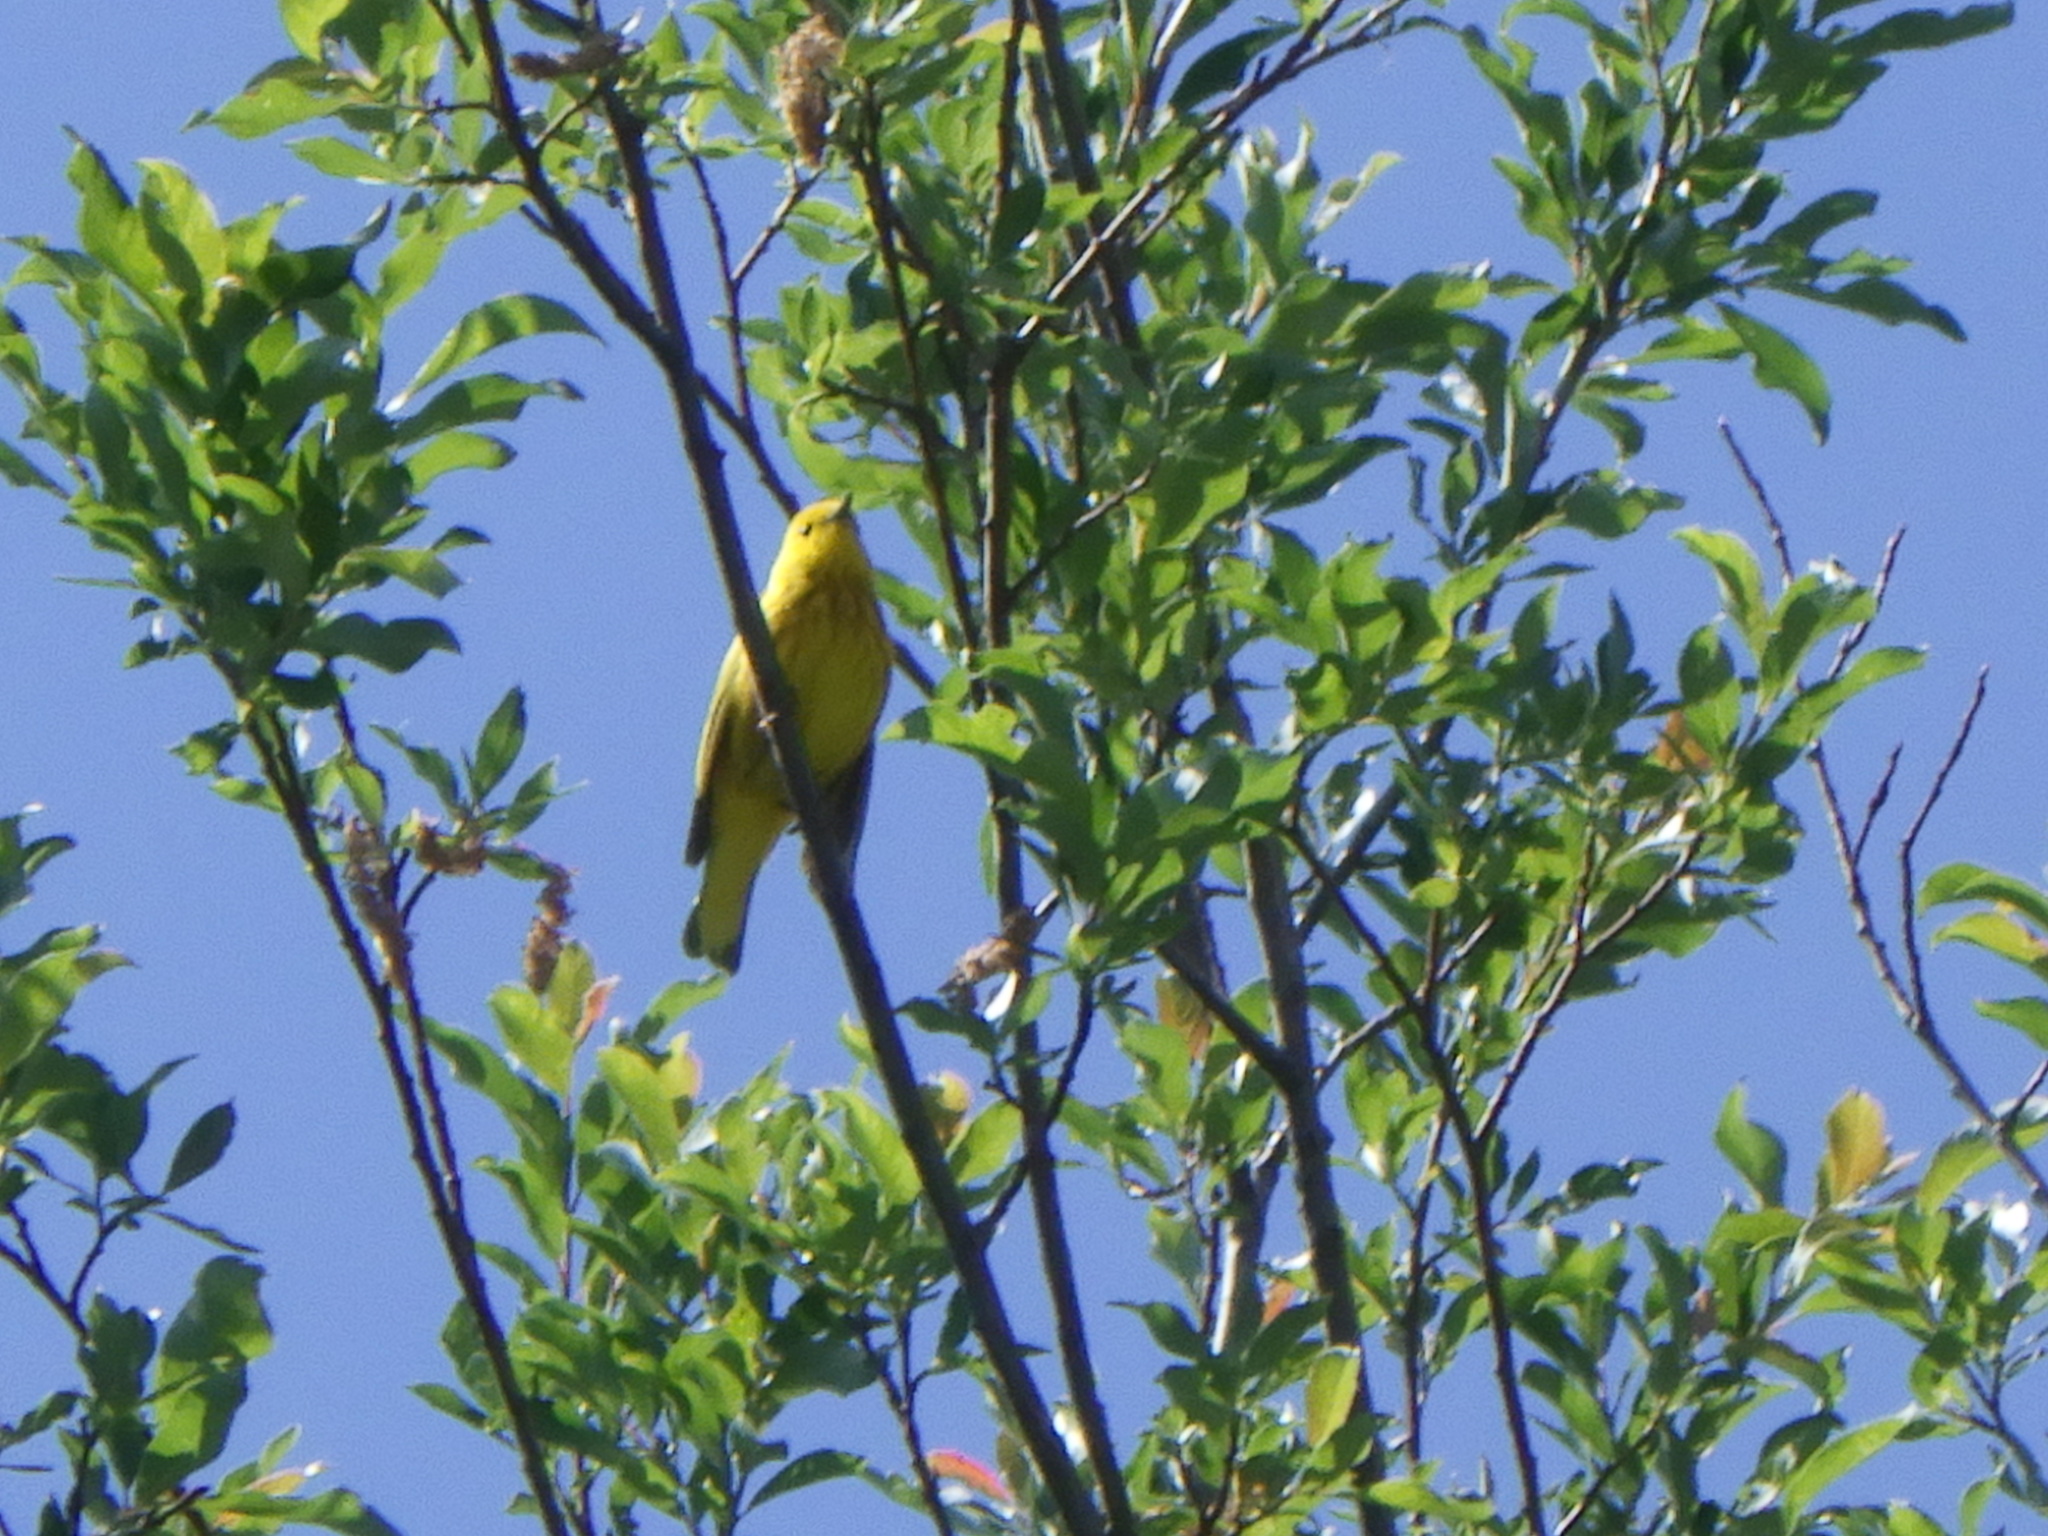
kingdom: Animalia
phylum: Chordata
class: Aves
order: Passeriformes
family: Parulidae
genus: Setophaga
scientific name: Setophaga petechia
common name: Yellow warbler
